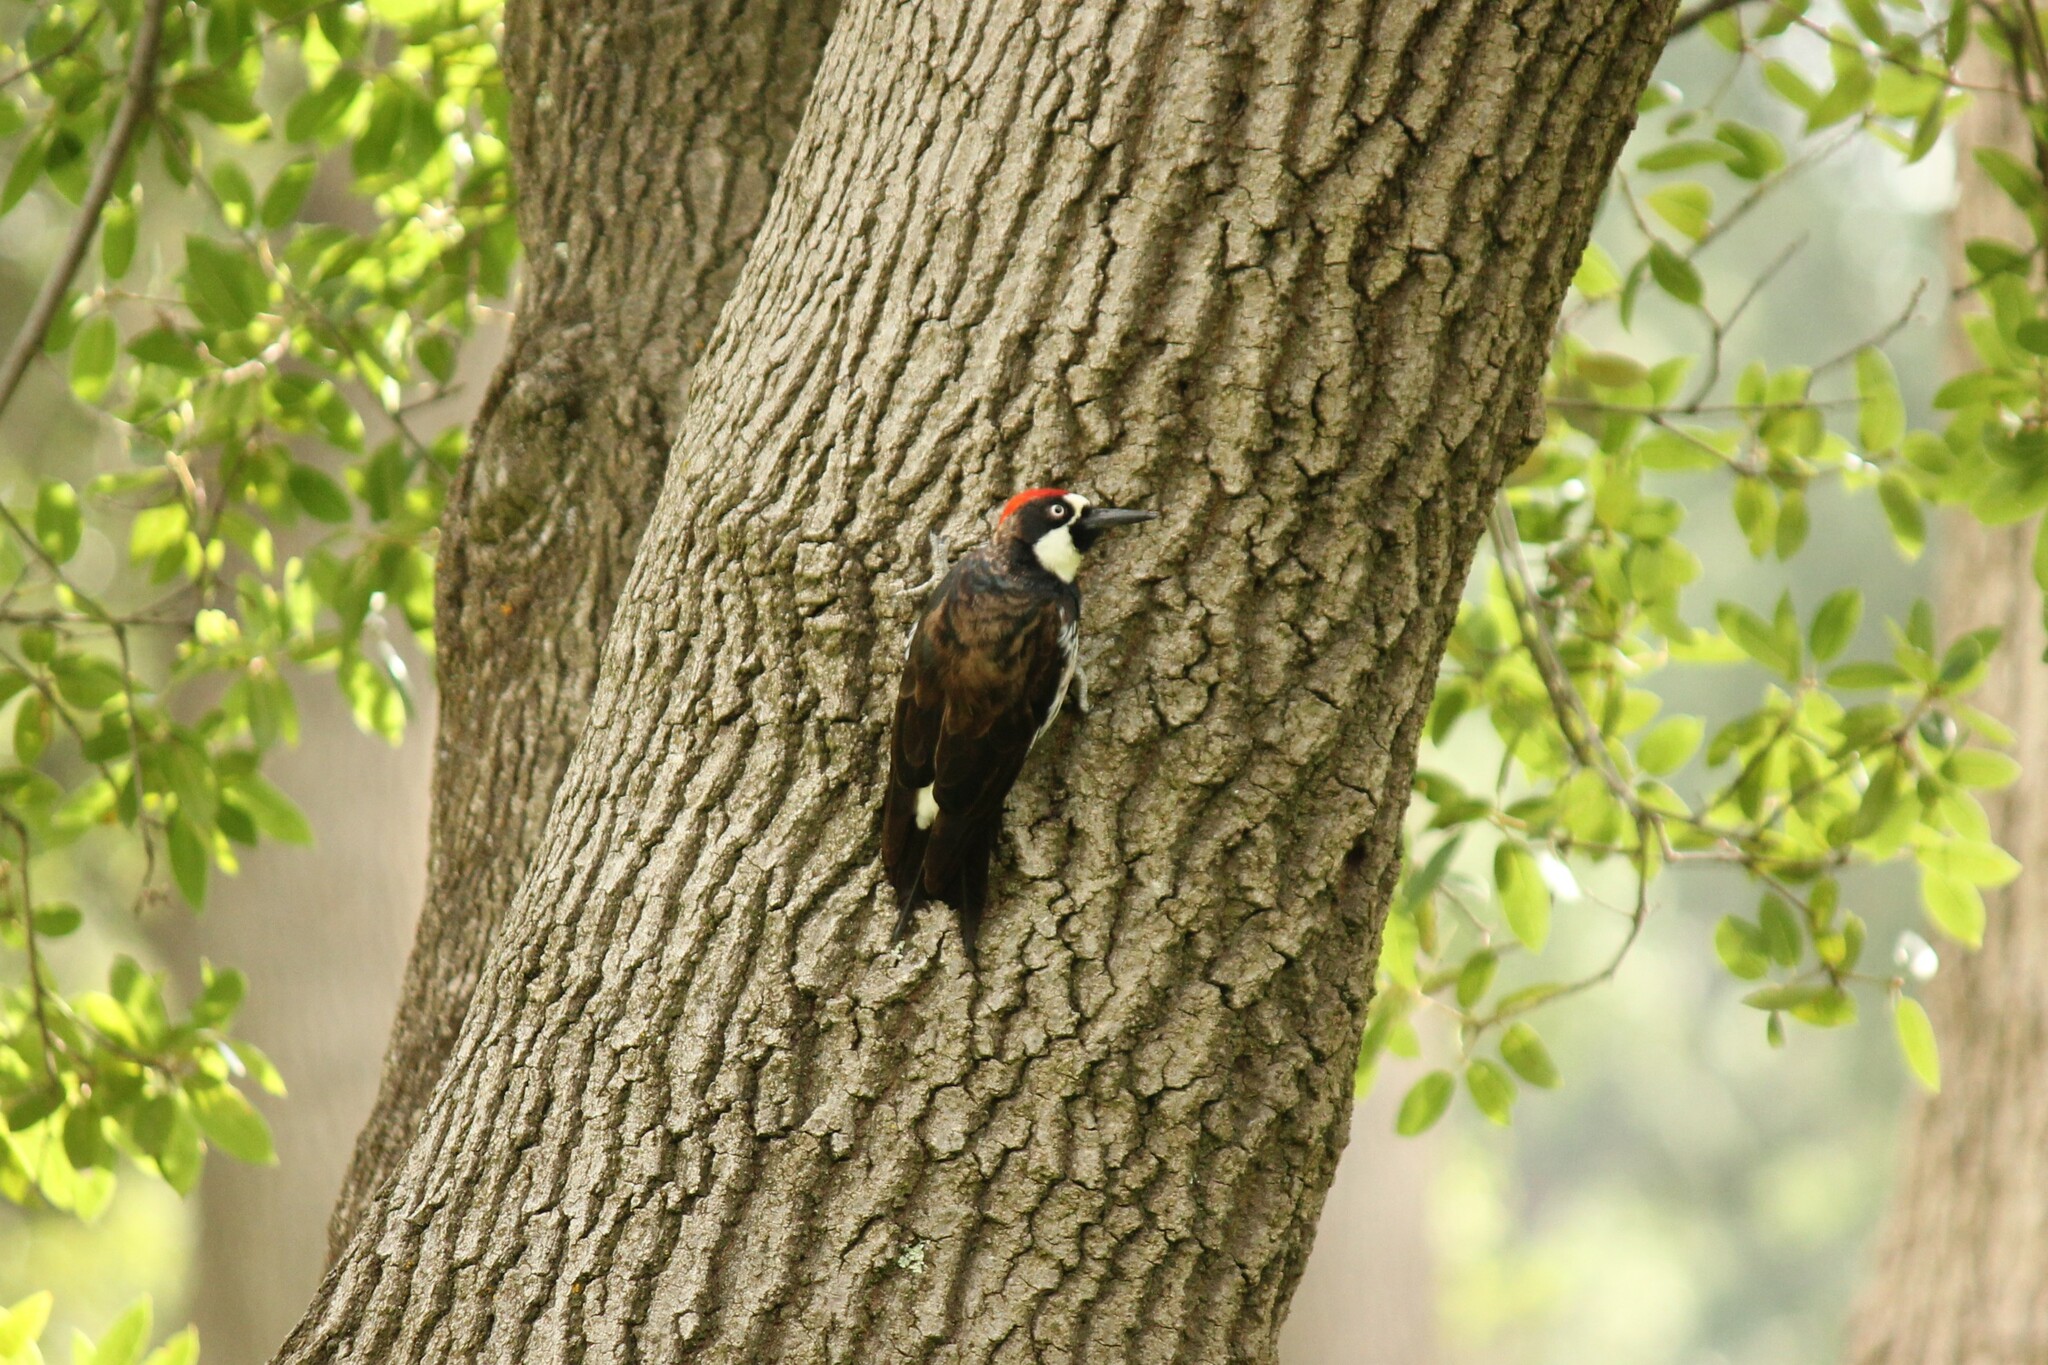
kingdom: Animalia
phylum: Chordata
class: Aves
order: Piciformes
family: Picidae
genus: Melanerpes
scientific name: Melanerpes formicivorus
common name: Acorn woodpecker
